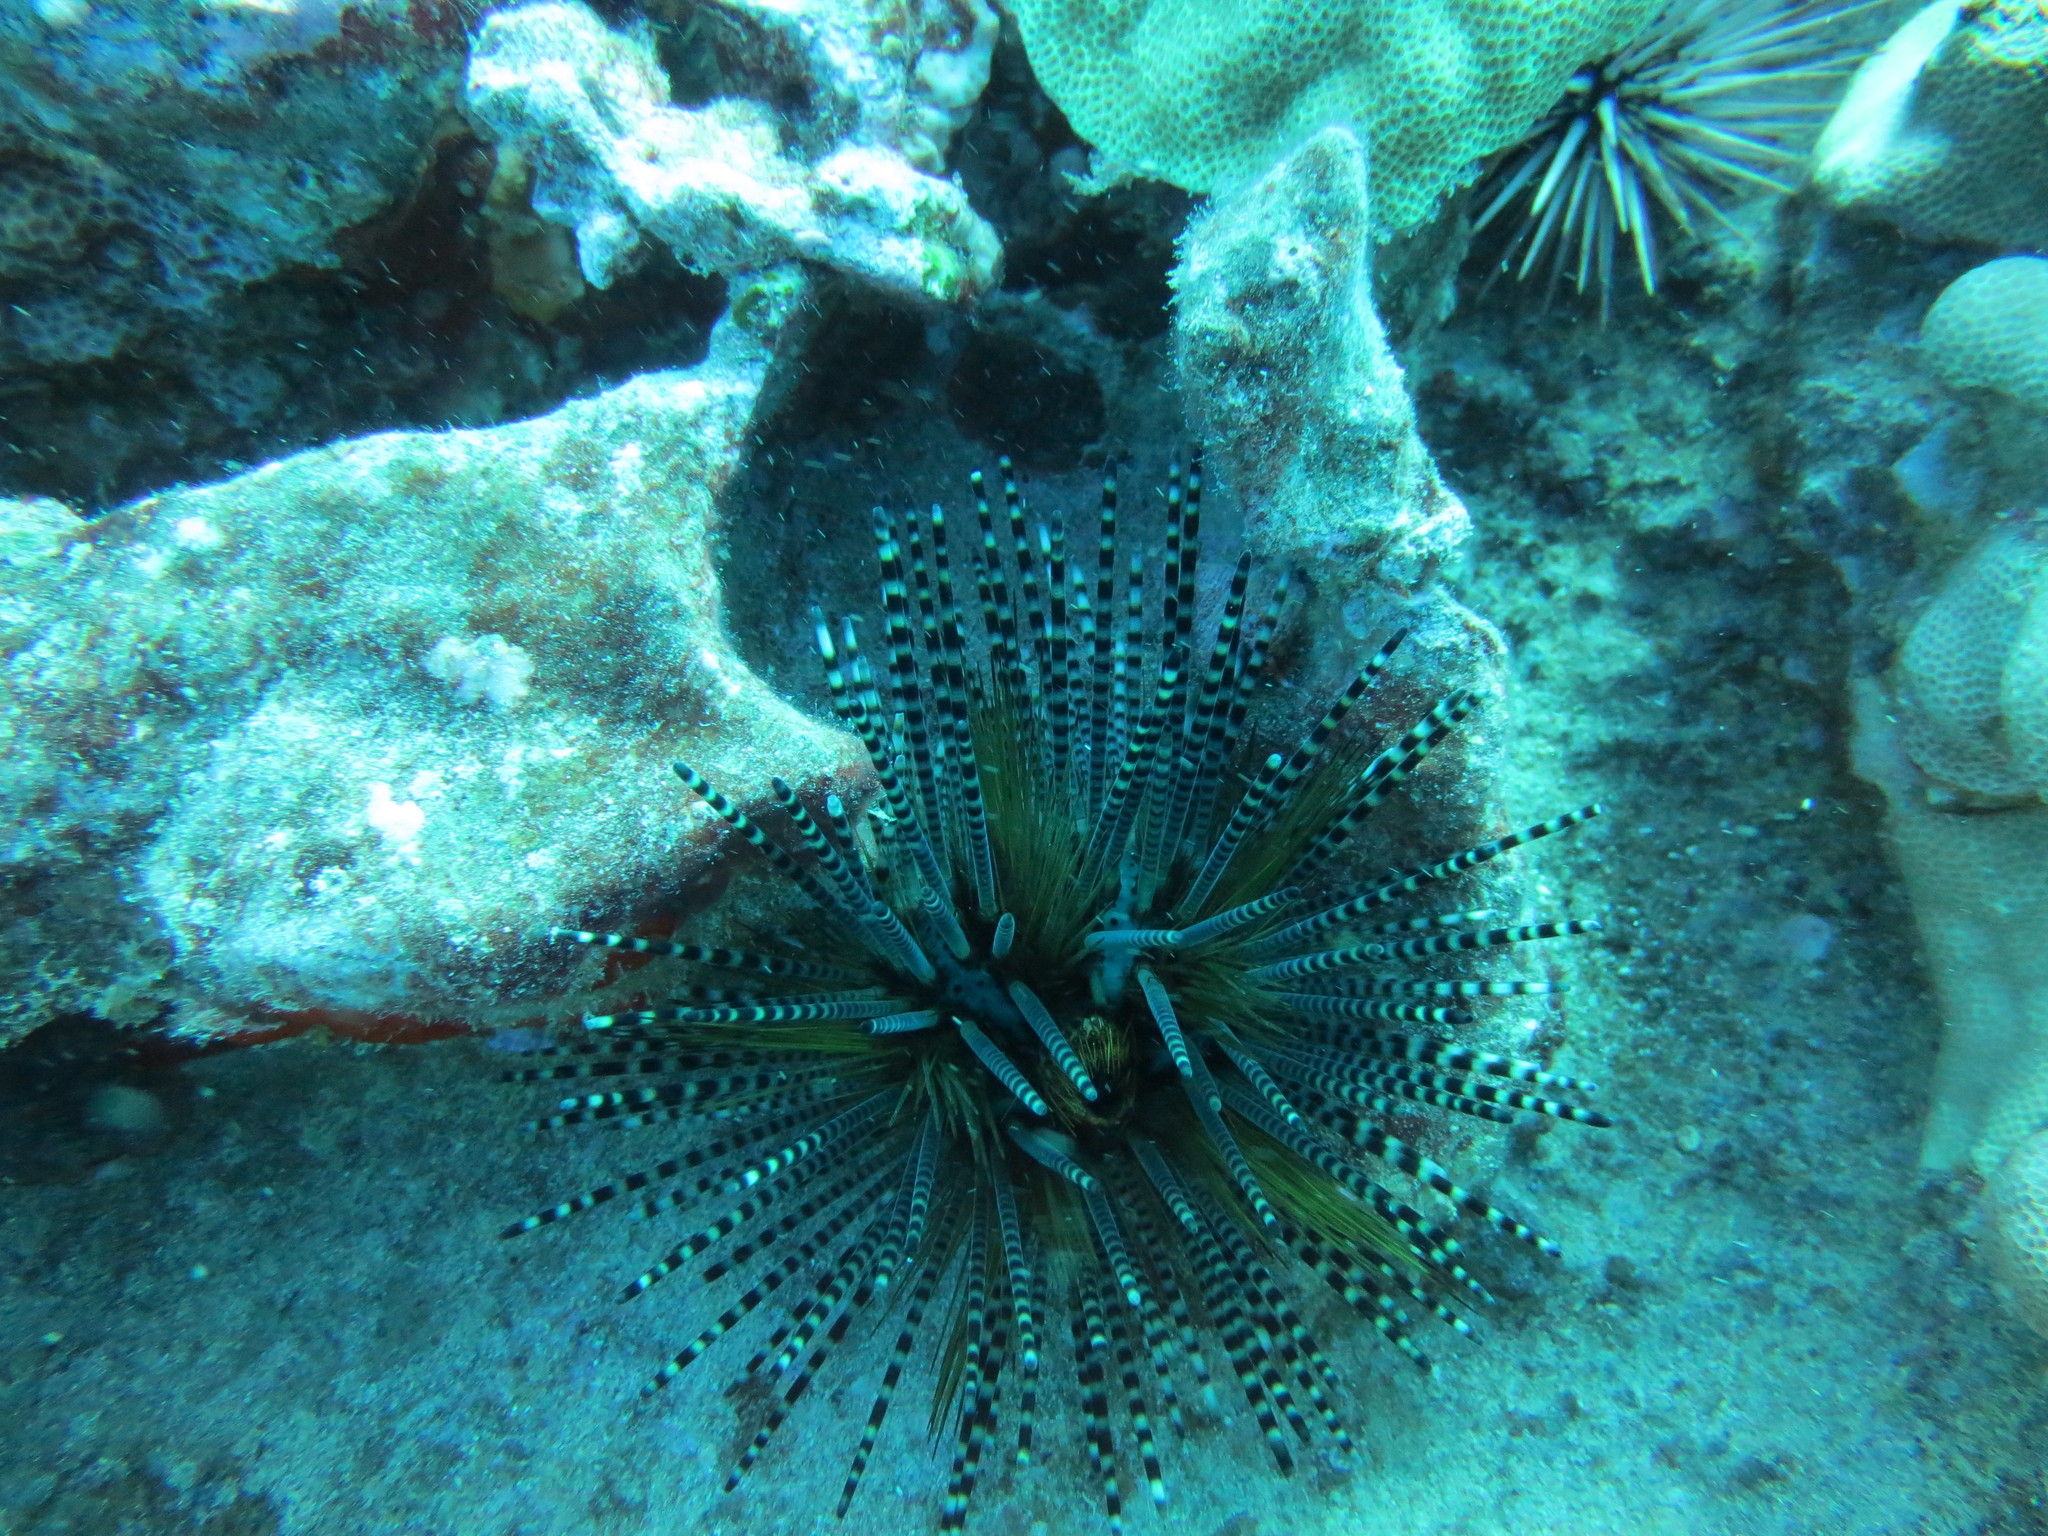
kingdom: Animalia
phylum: Echinodermata
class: Echinoidea
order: Diadematoida
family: Diadematidae
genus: Echinothrix
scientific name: Echinothrix calamaris
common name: Banded sea urchin
